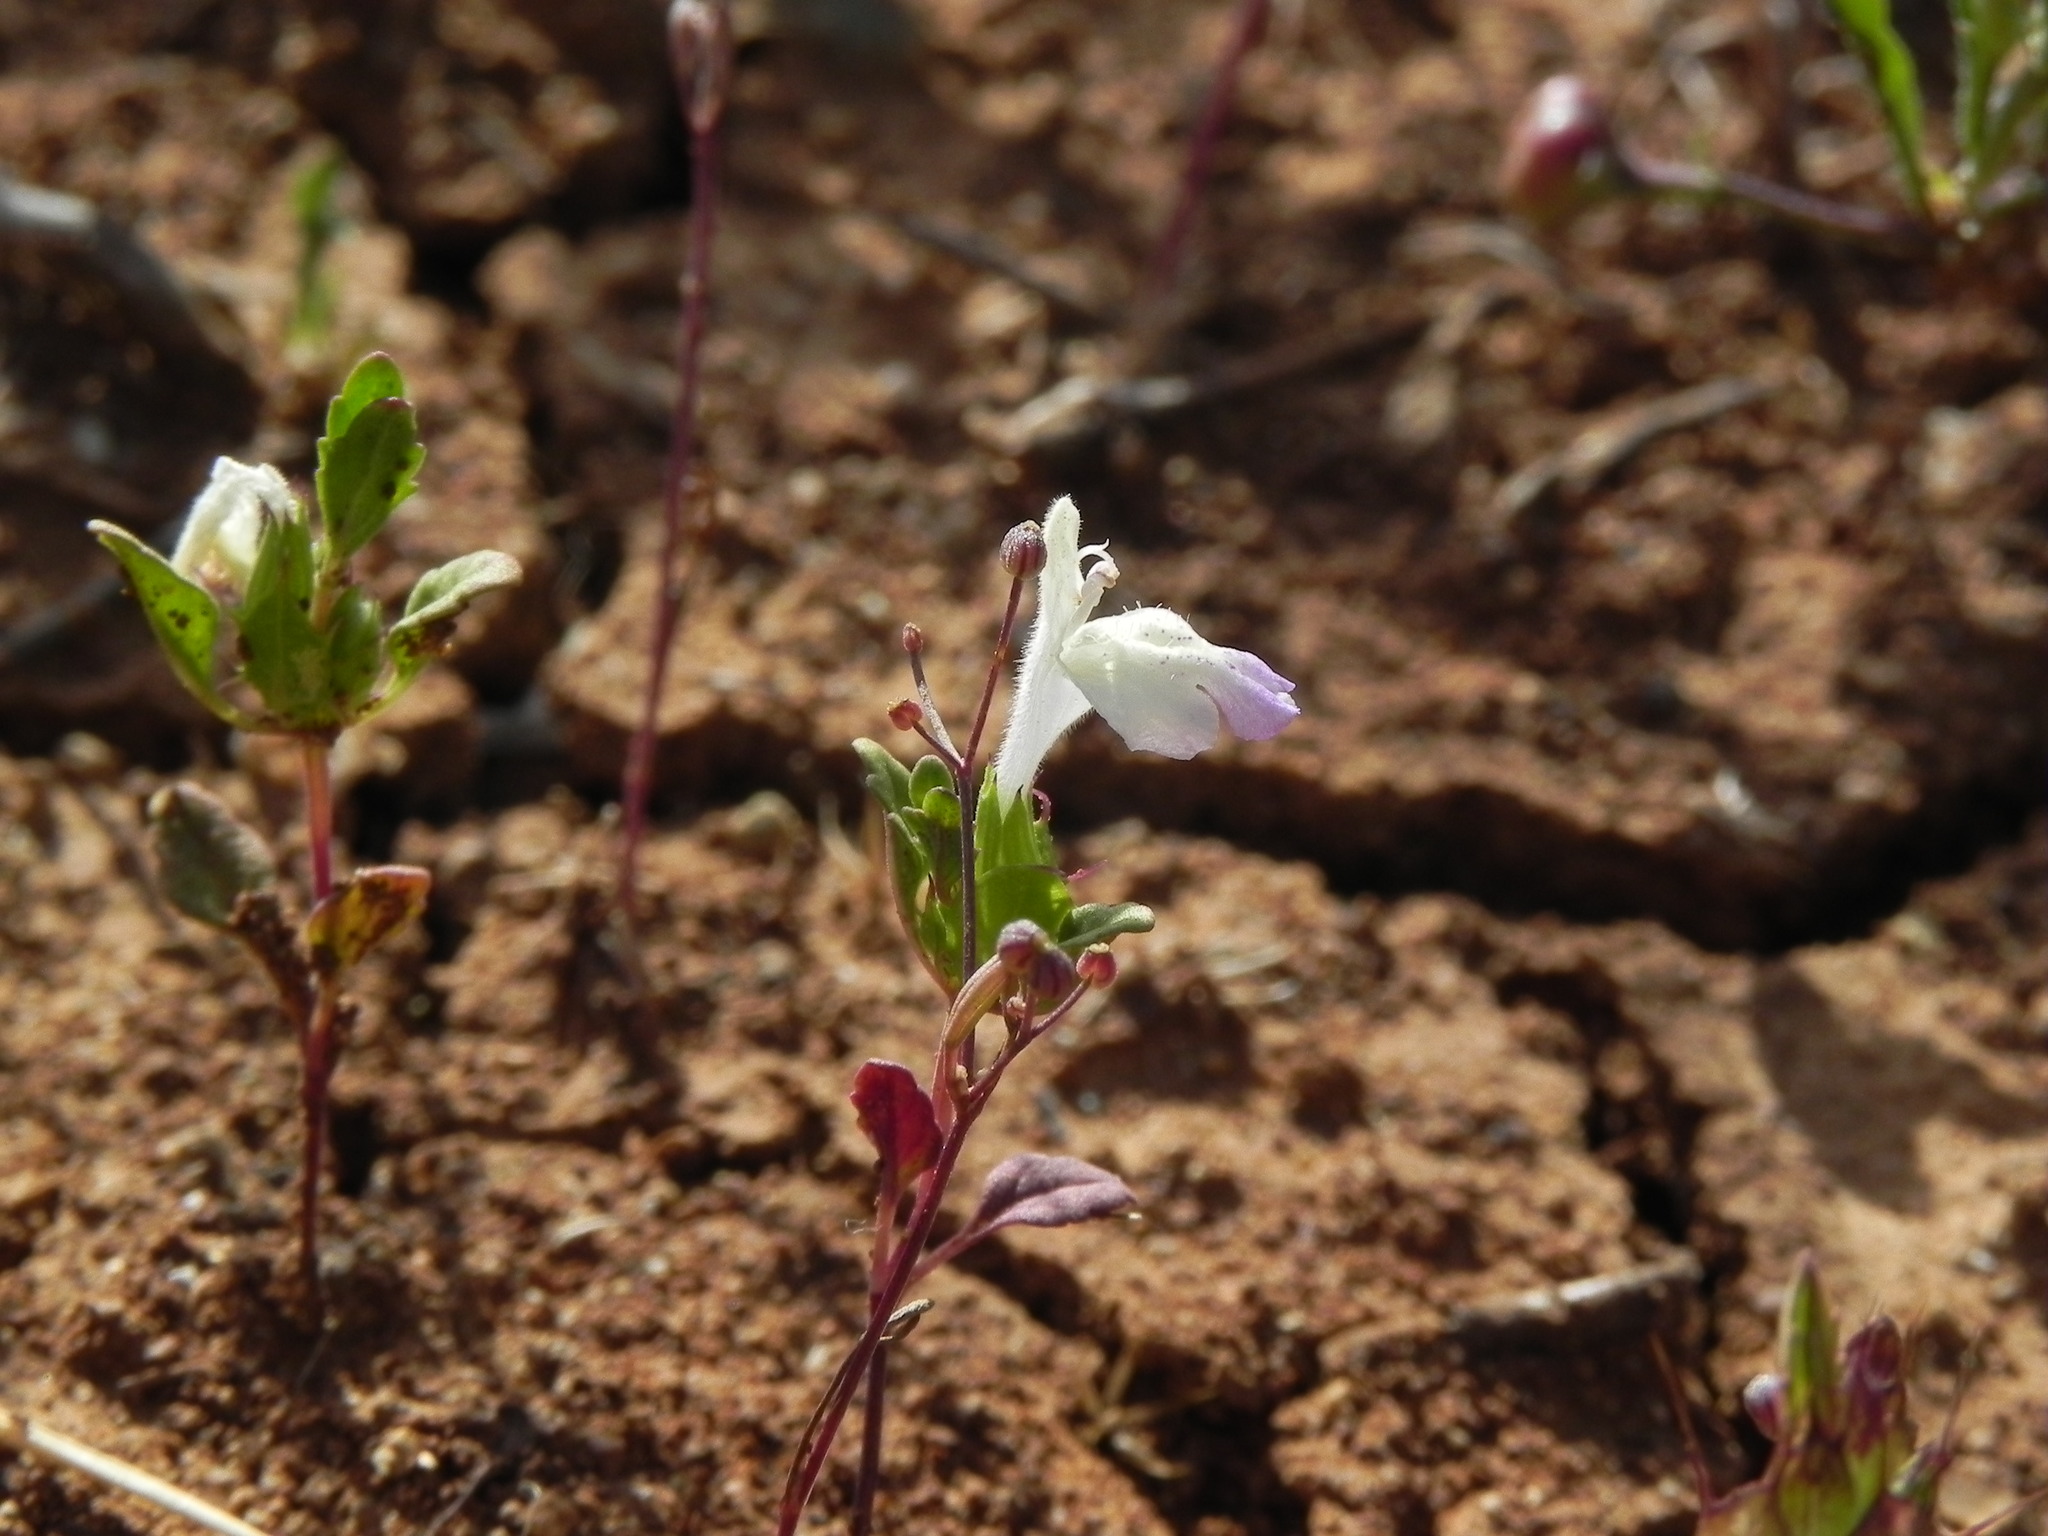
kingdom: Plantae
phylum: Tracheophyta
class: Magnoliopsida
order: Lamiales
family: Lamiaceae
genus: Acanthomintha
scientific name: Acanthomintha ilicifolia
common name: San diego thorn-mint
